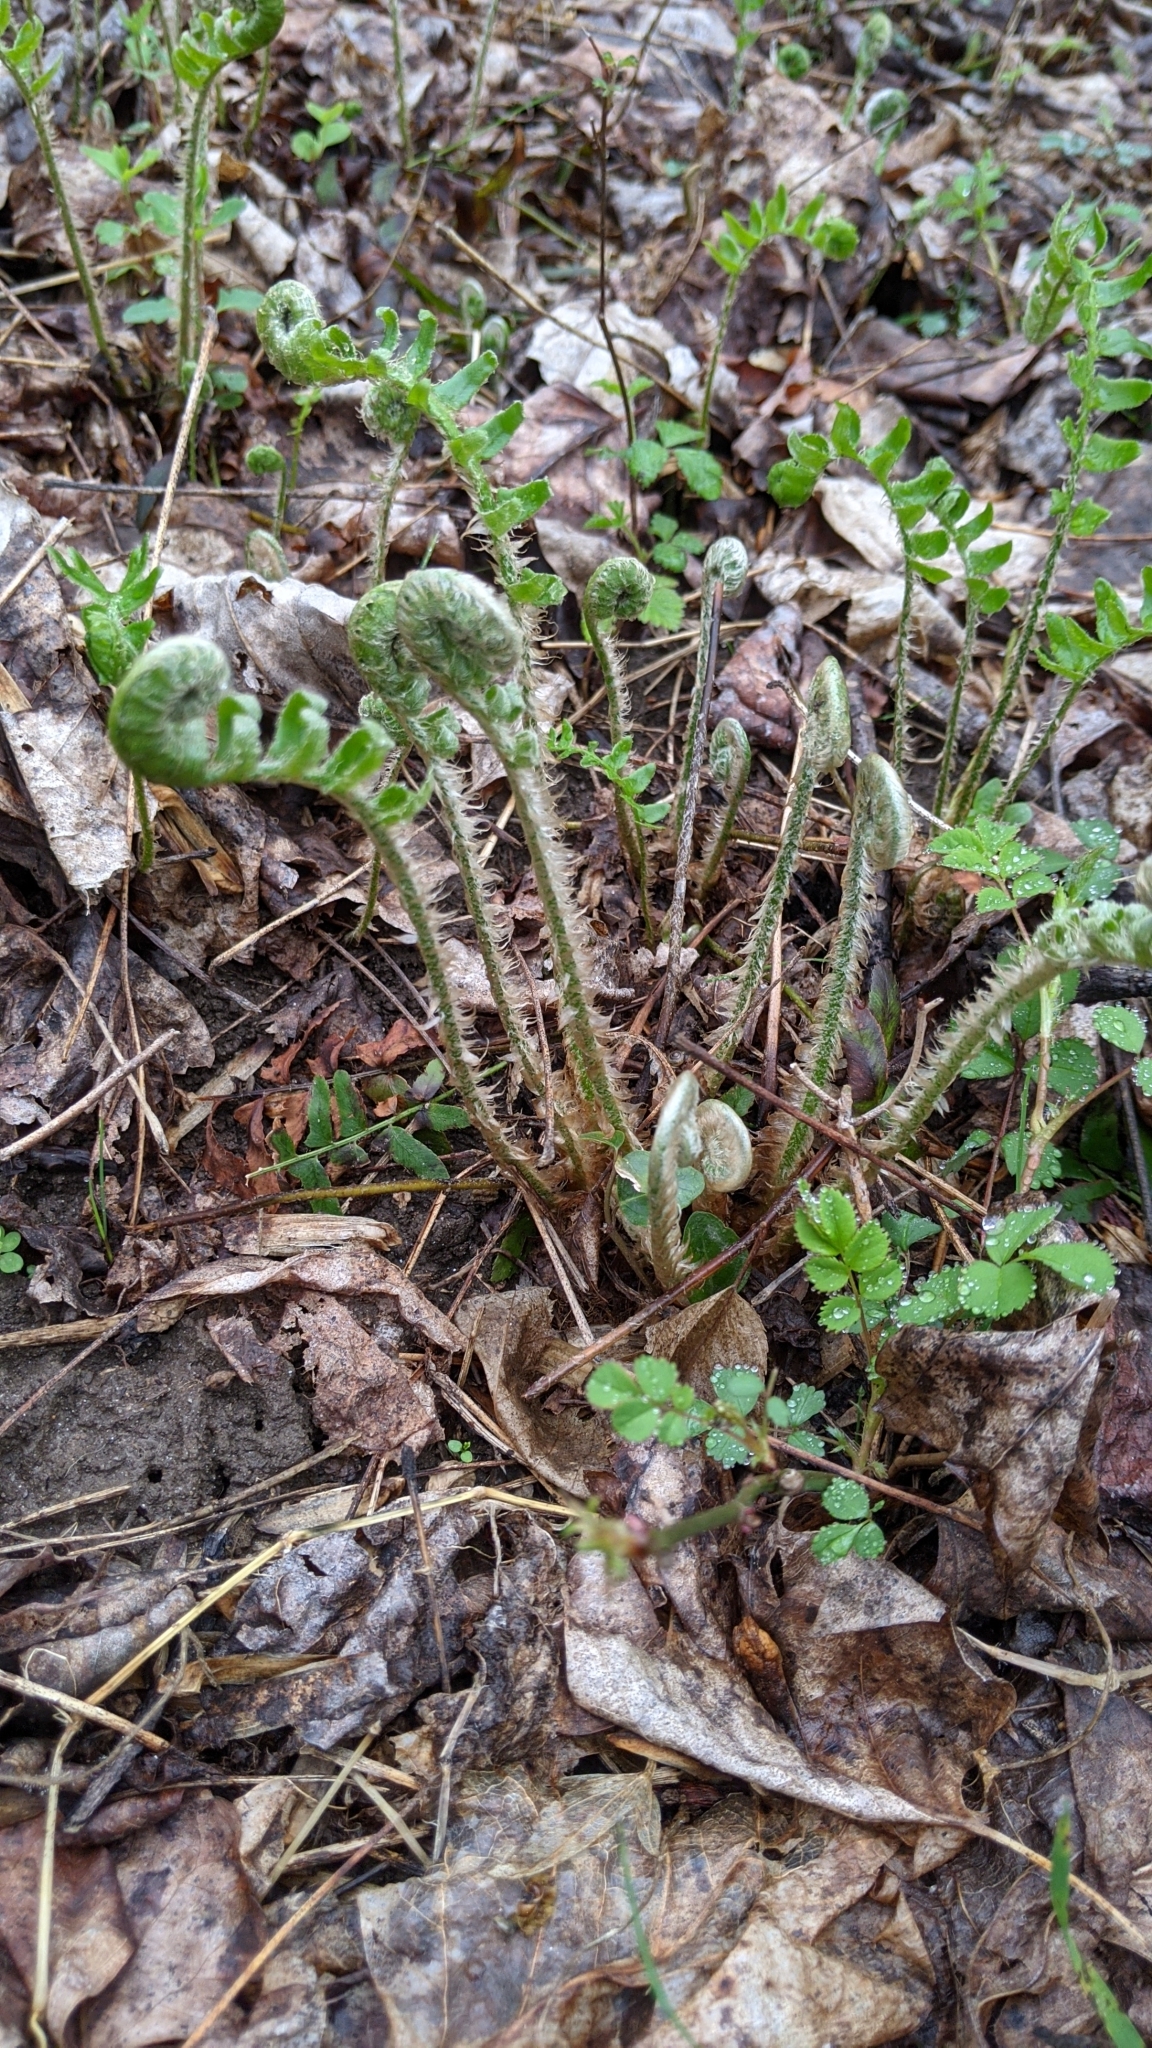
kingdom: Plantae
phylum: Tracheophyta
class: Polypodiopsida
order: Polypodiales
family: Dryopteridaceae
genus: Polystichum
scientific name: Polystichum acrostichoides
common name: Christmas fern
